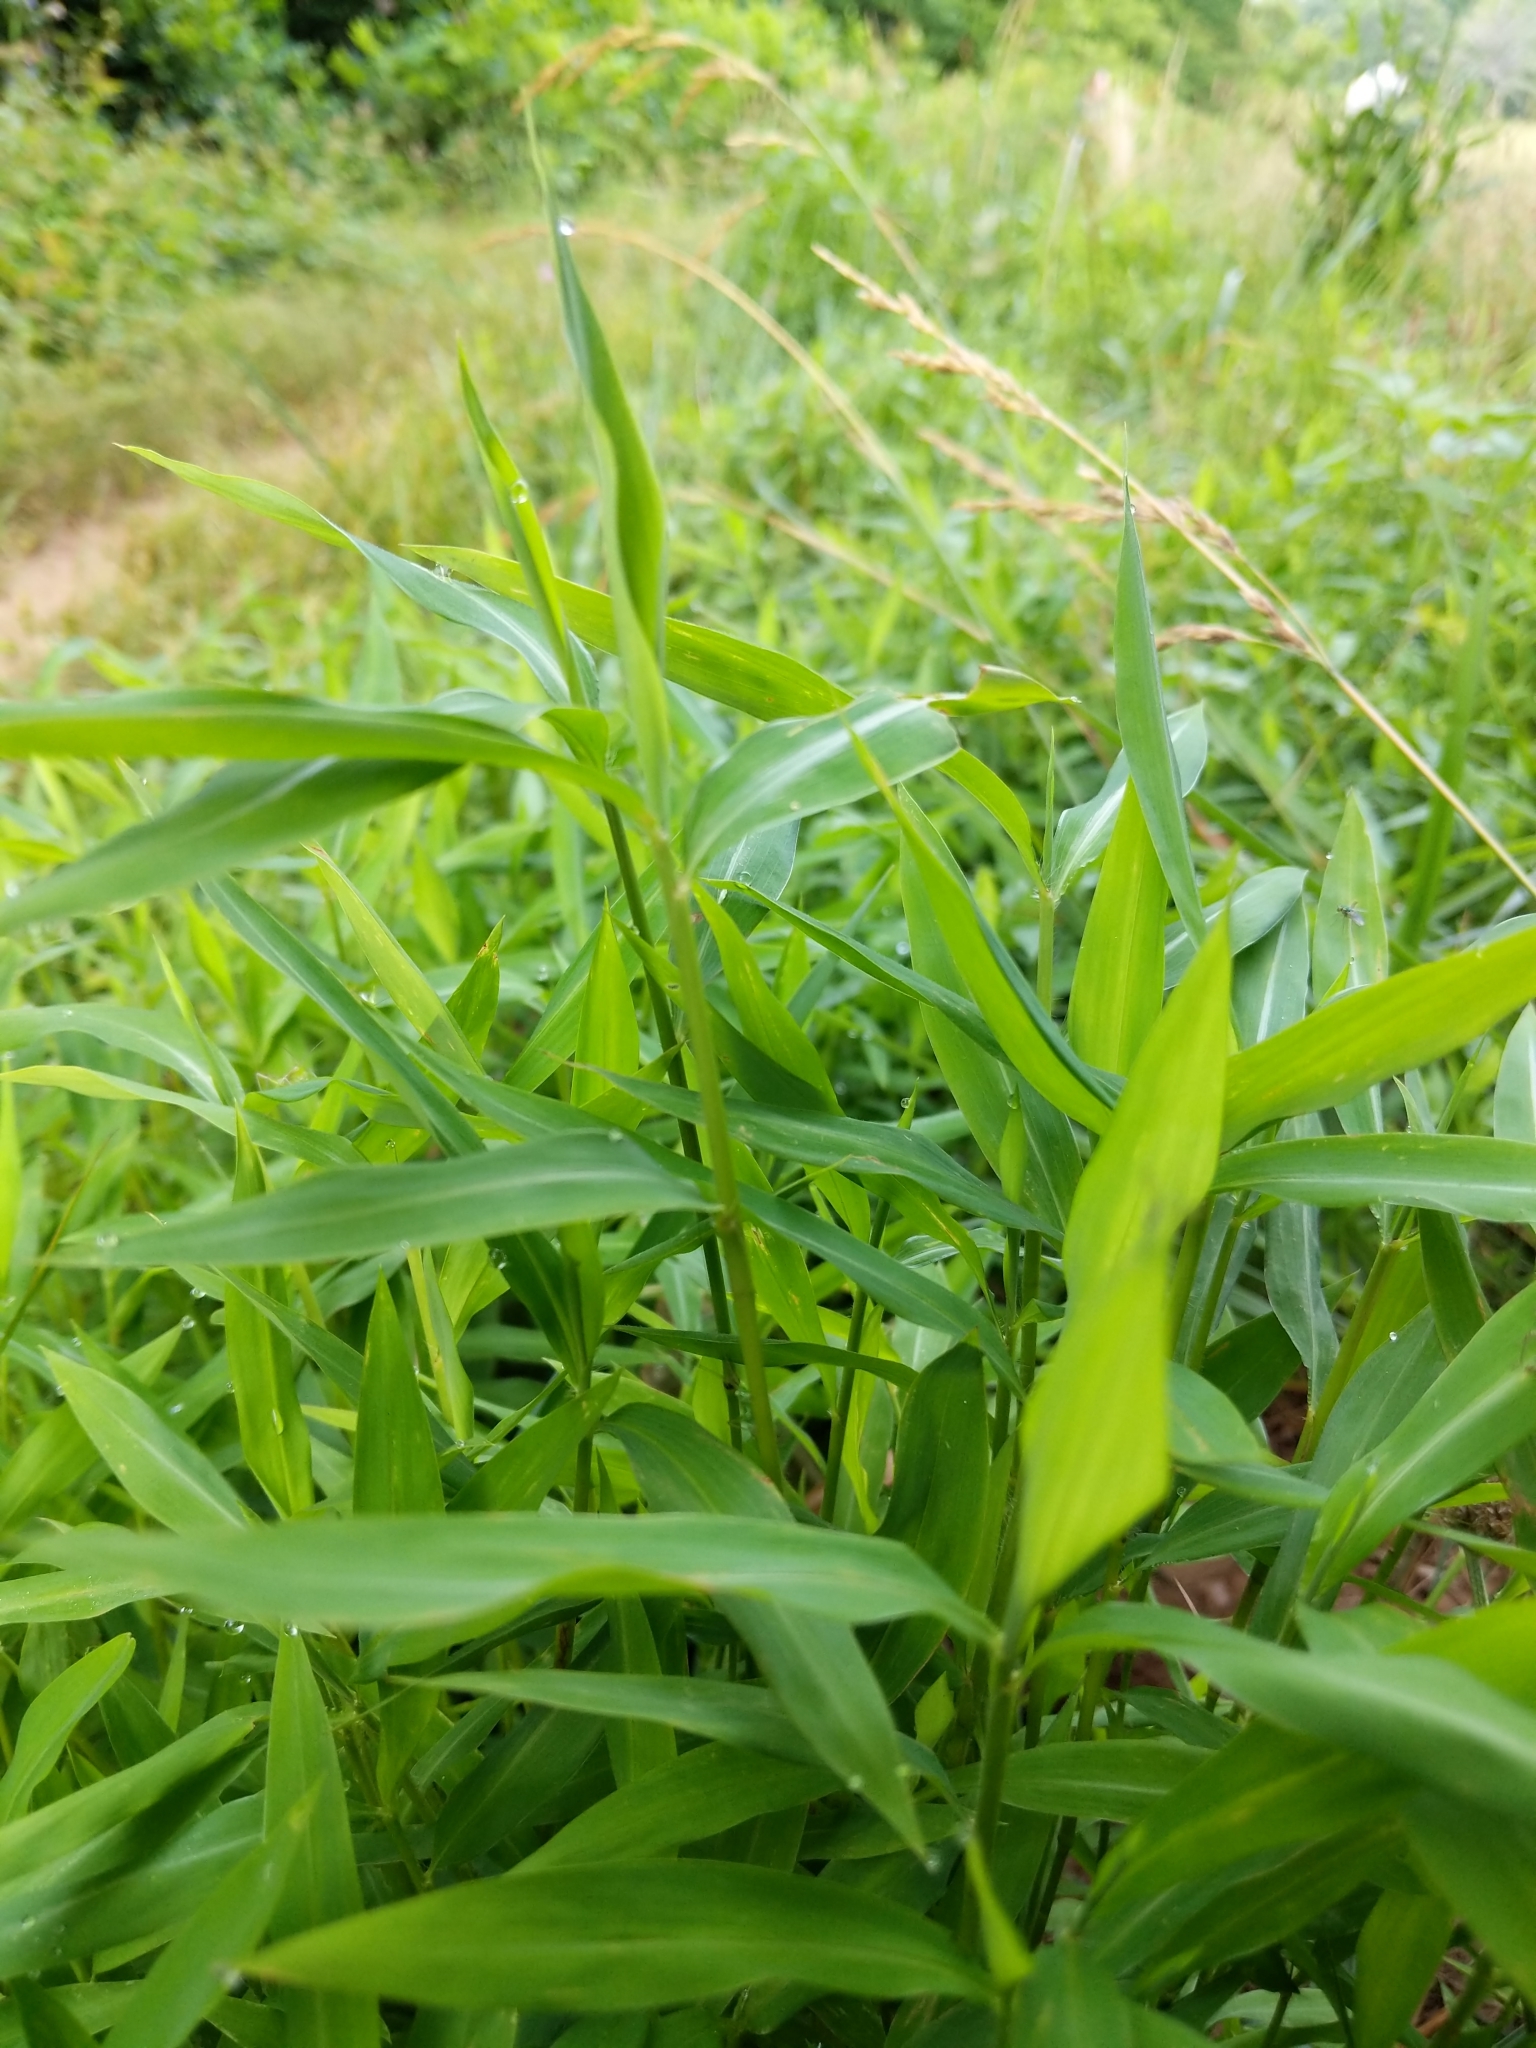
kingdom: Plantae
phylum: Tracheophyta
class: Liliopsida
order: Poales
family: Poaceae
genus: Microstegium
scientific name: Microstegium vimineum
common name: Japanese stiltgrass
